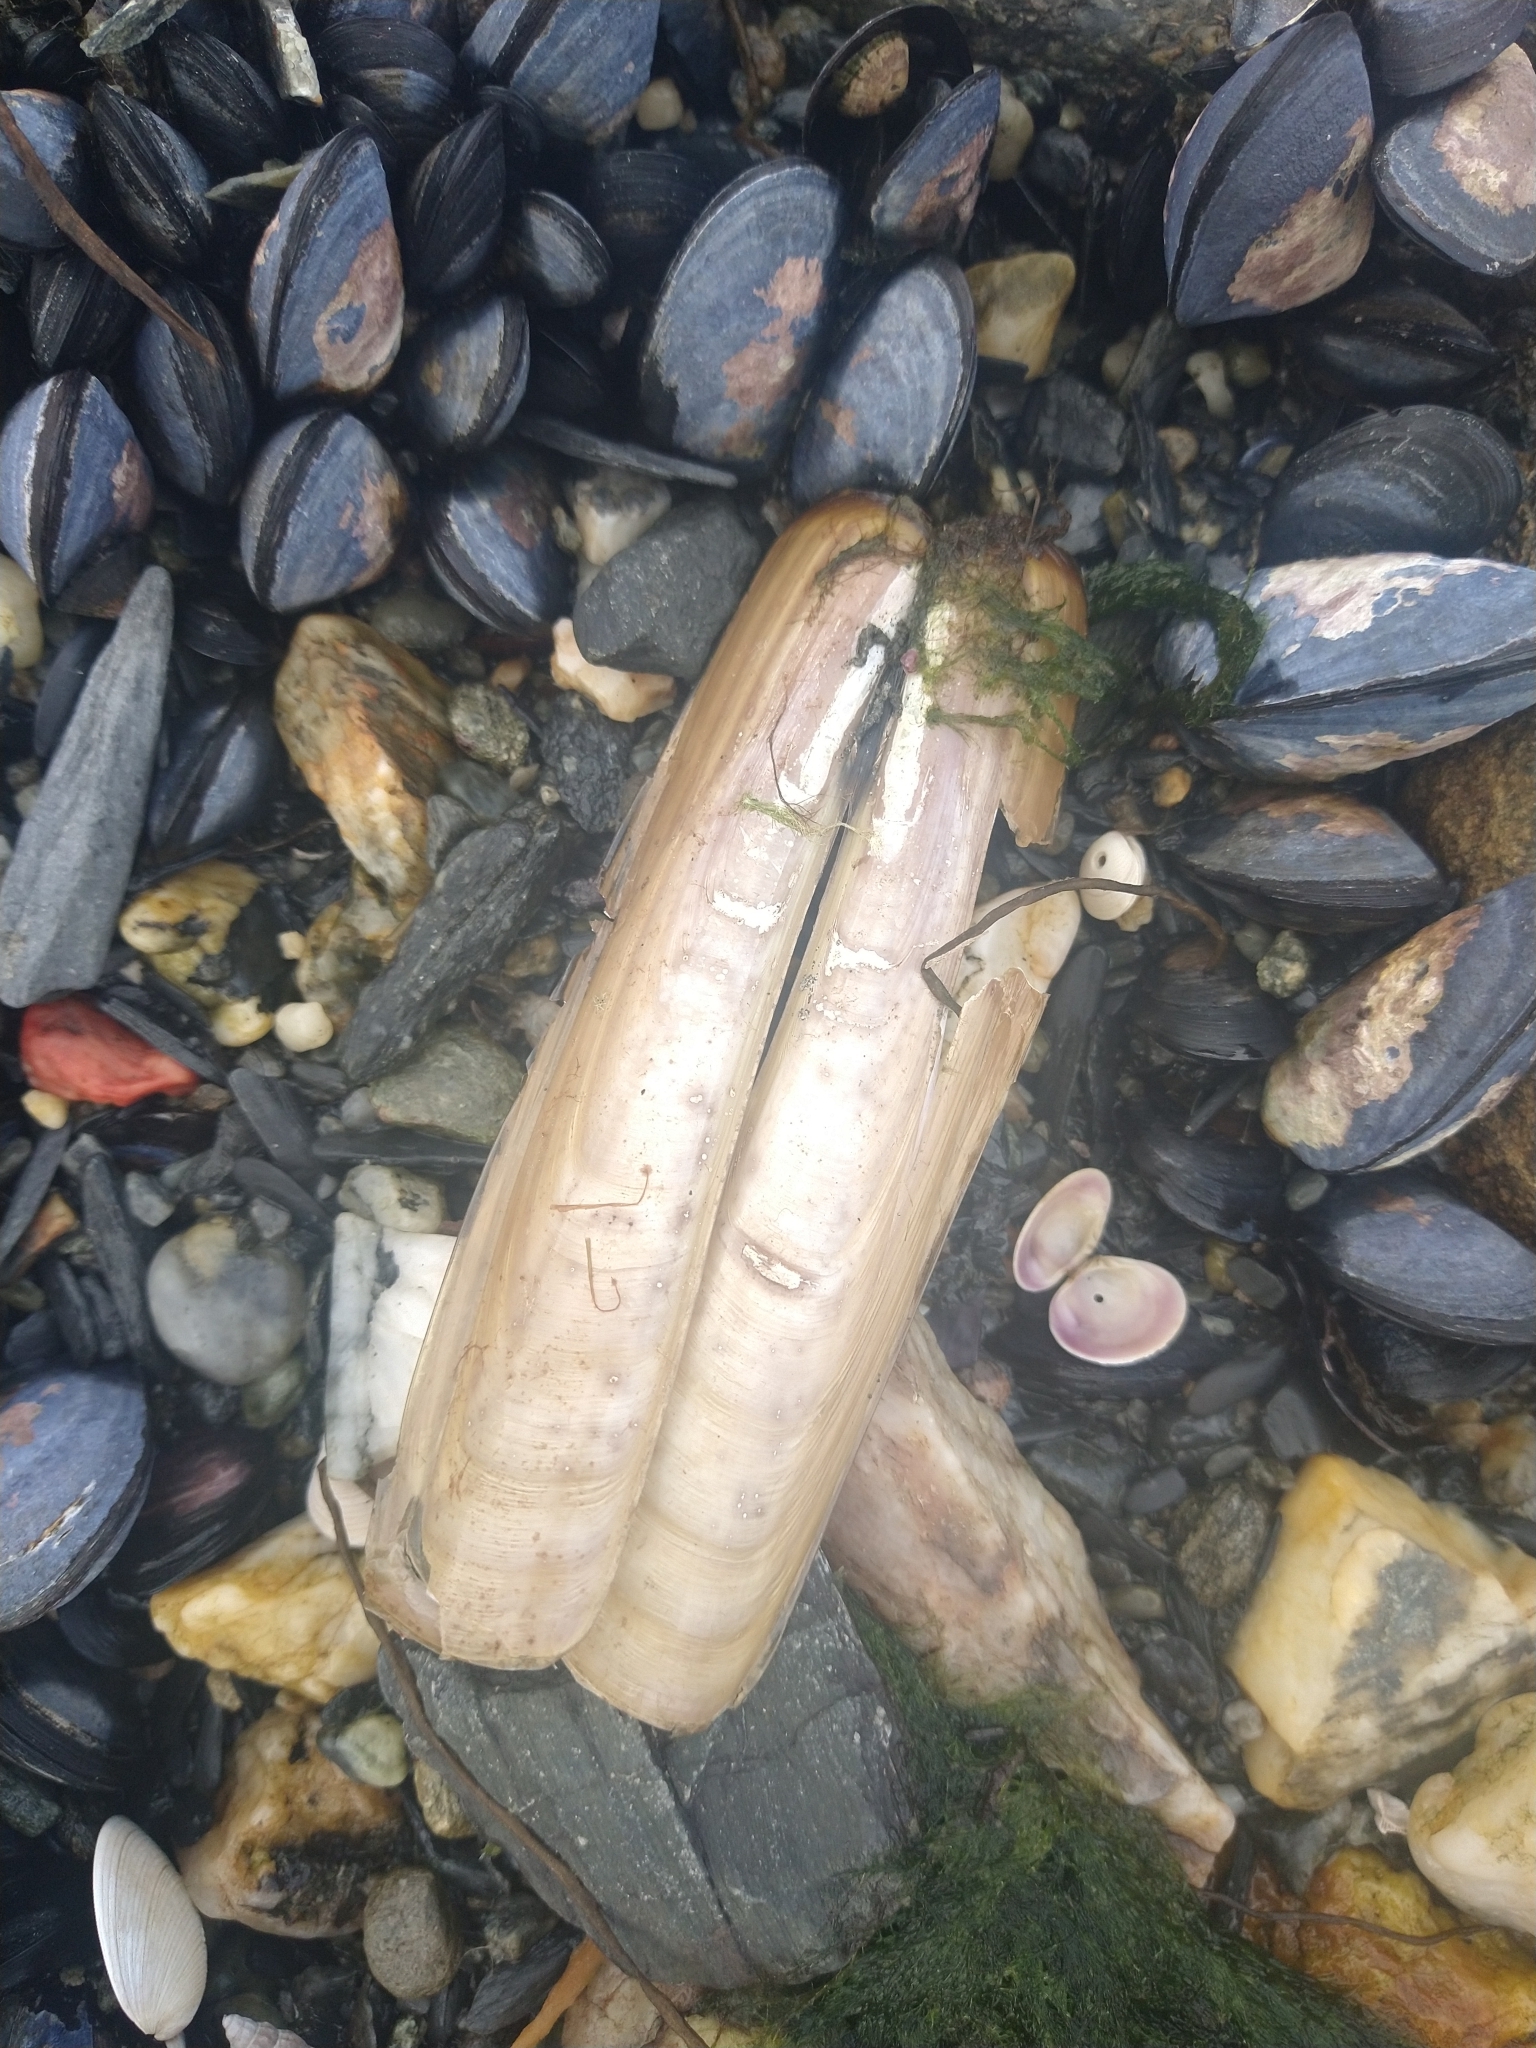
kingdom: Animalia
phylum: Mollusca
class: Bivalvia
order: Adapedonta
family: Pharidae
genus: Ensis
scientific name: Ensis macha
